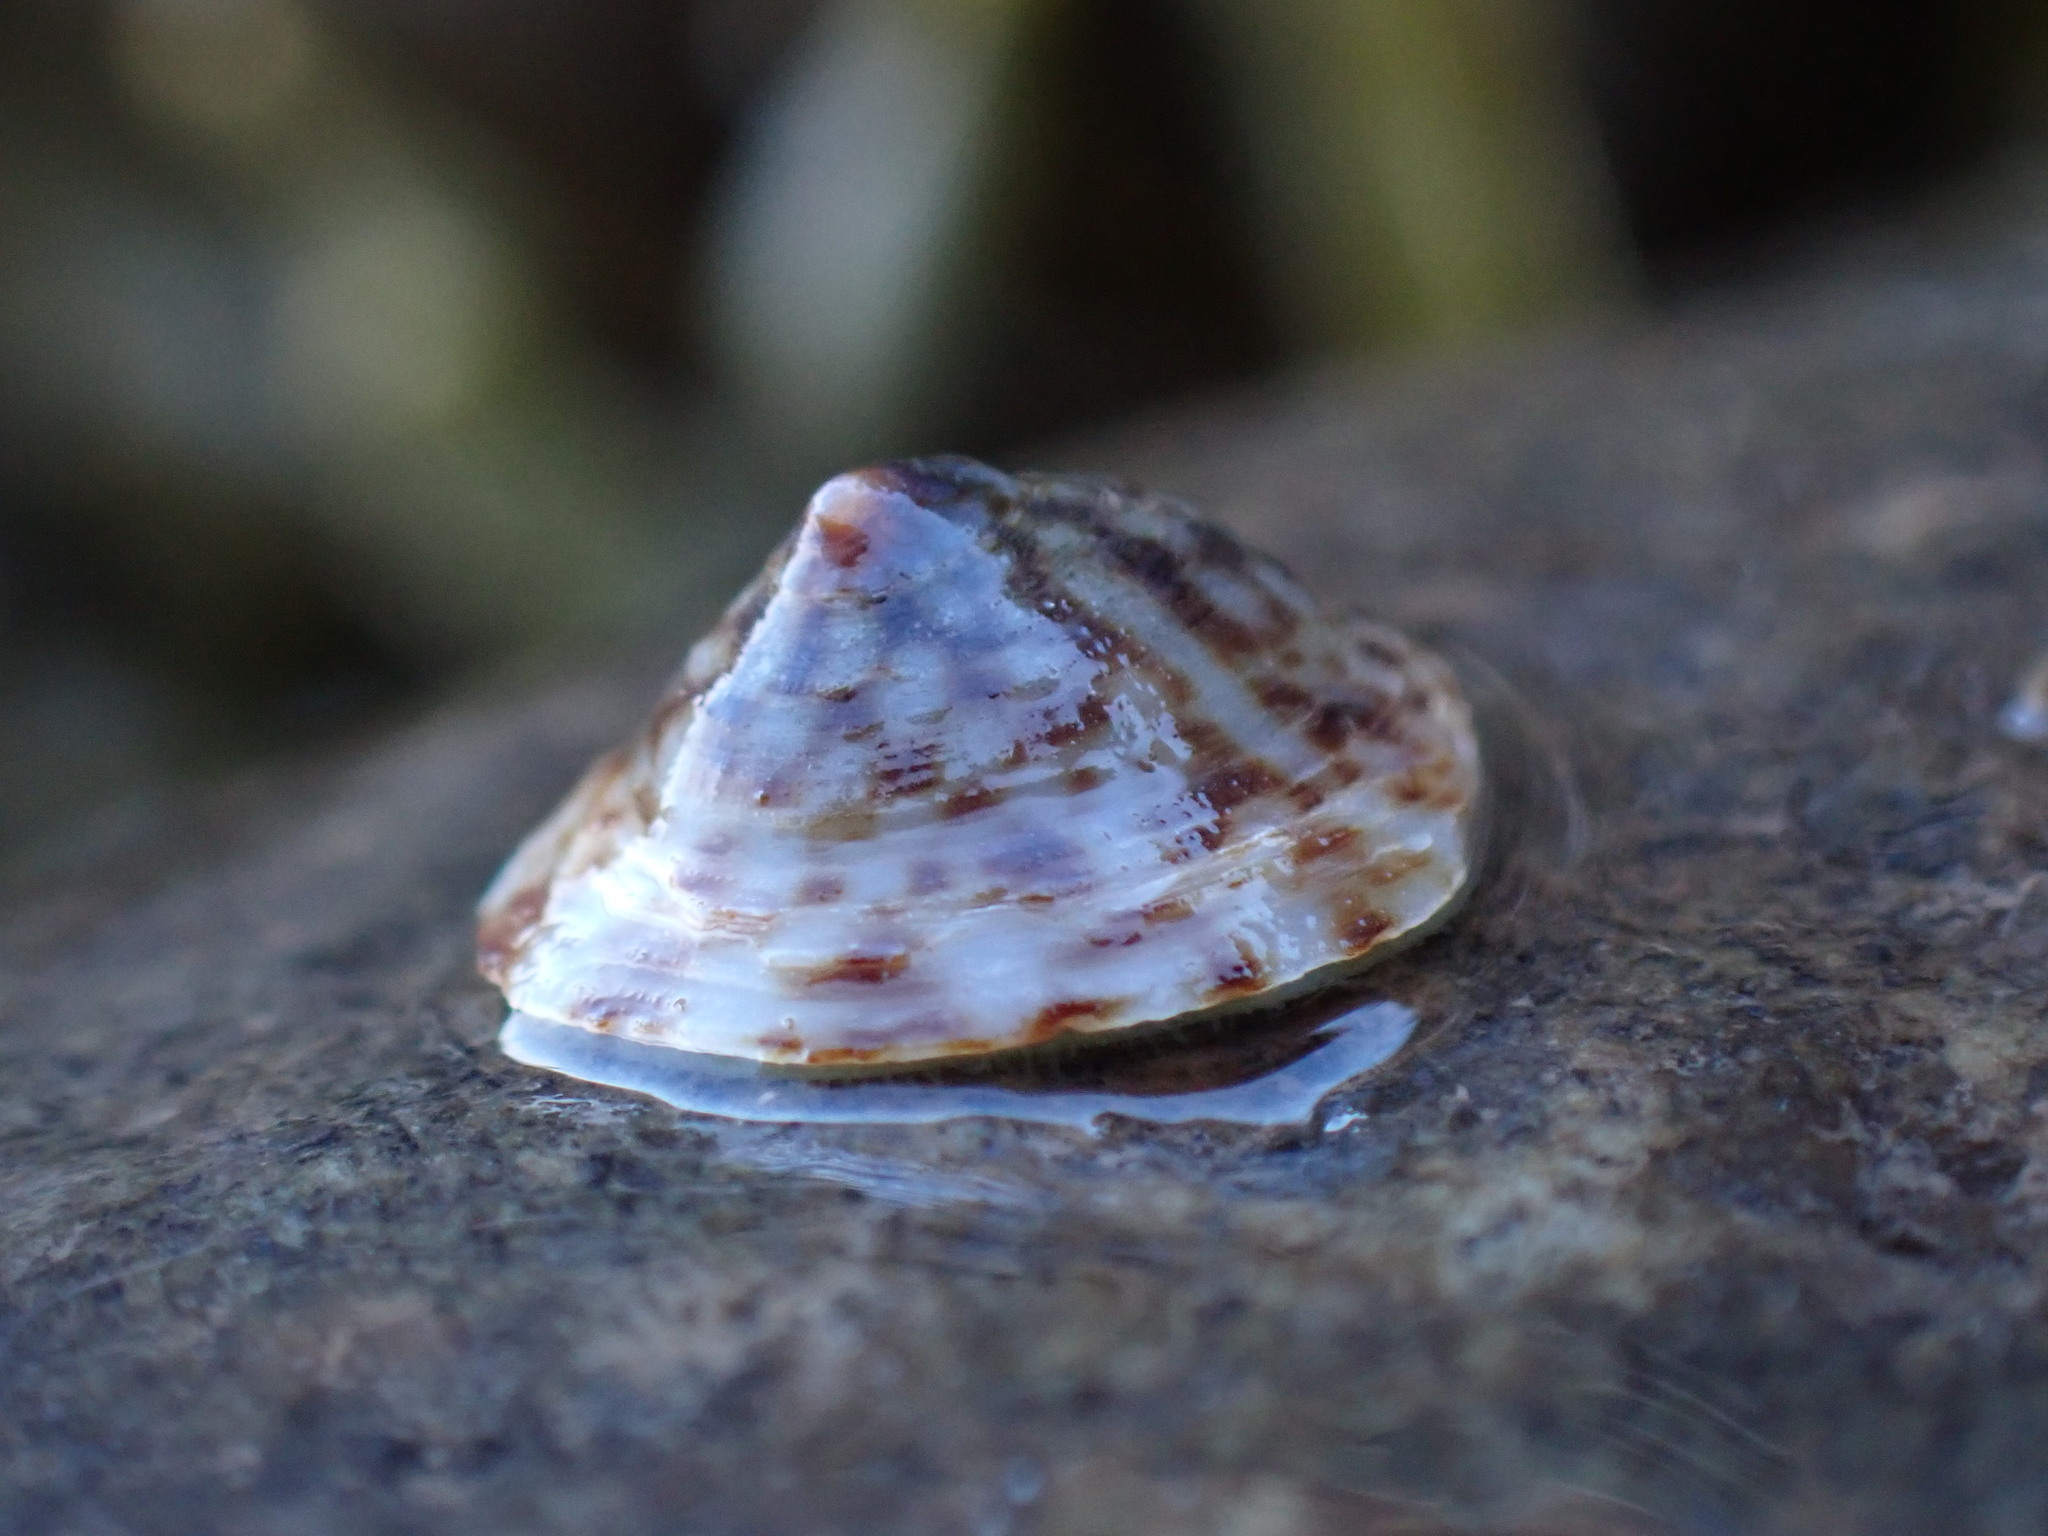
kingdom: Animalia
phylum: Mollusca
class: Gastropoda
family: Lottiidae
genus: Testudinalia
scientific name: Testudinalia testudinalis
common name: Common tortoiseshell limpet
